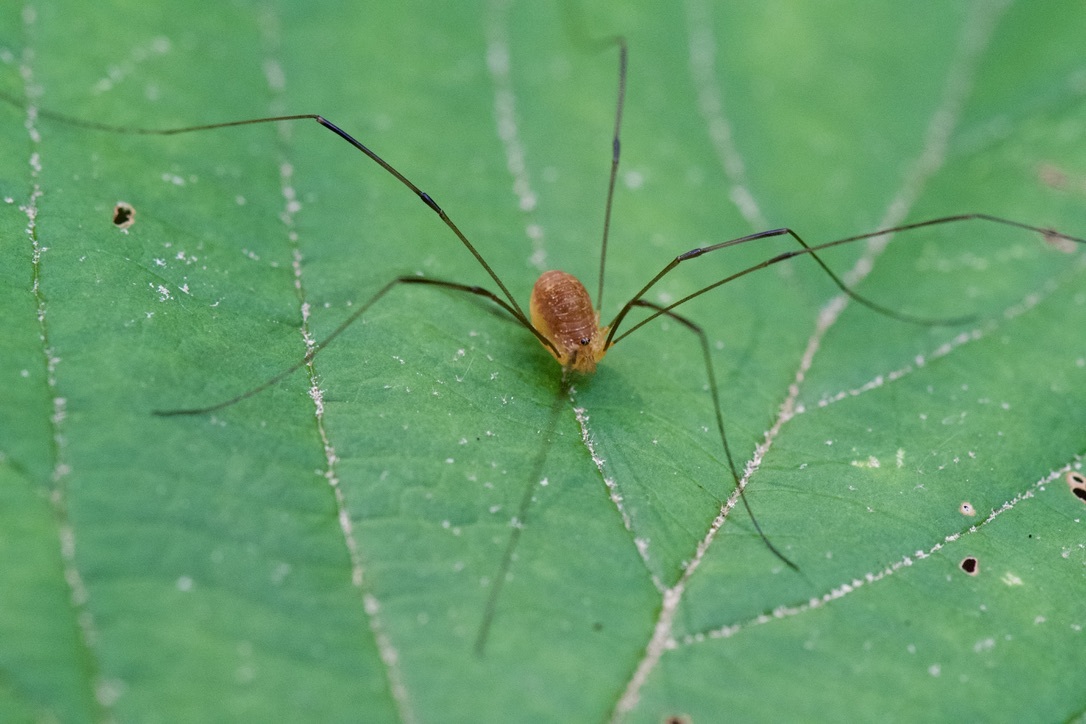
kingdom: Animalia
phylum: Arthropoda
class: Arachnida
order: Opiliones
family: Sclerosomatidae
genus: Leiobunum
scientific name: Leiobunum bracchiolum
